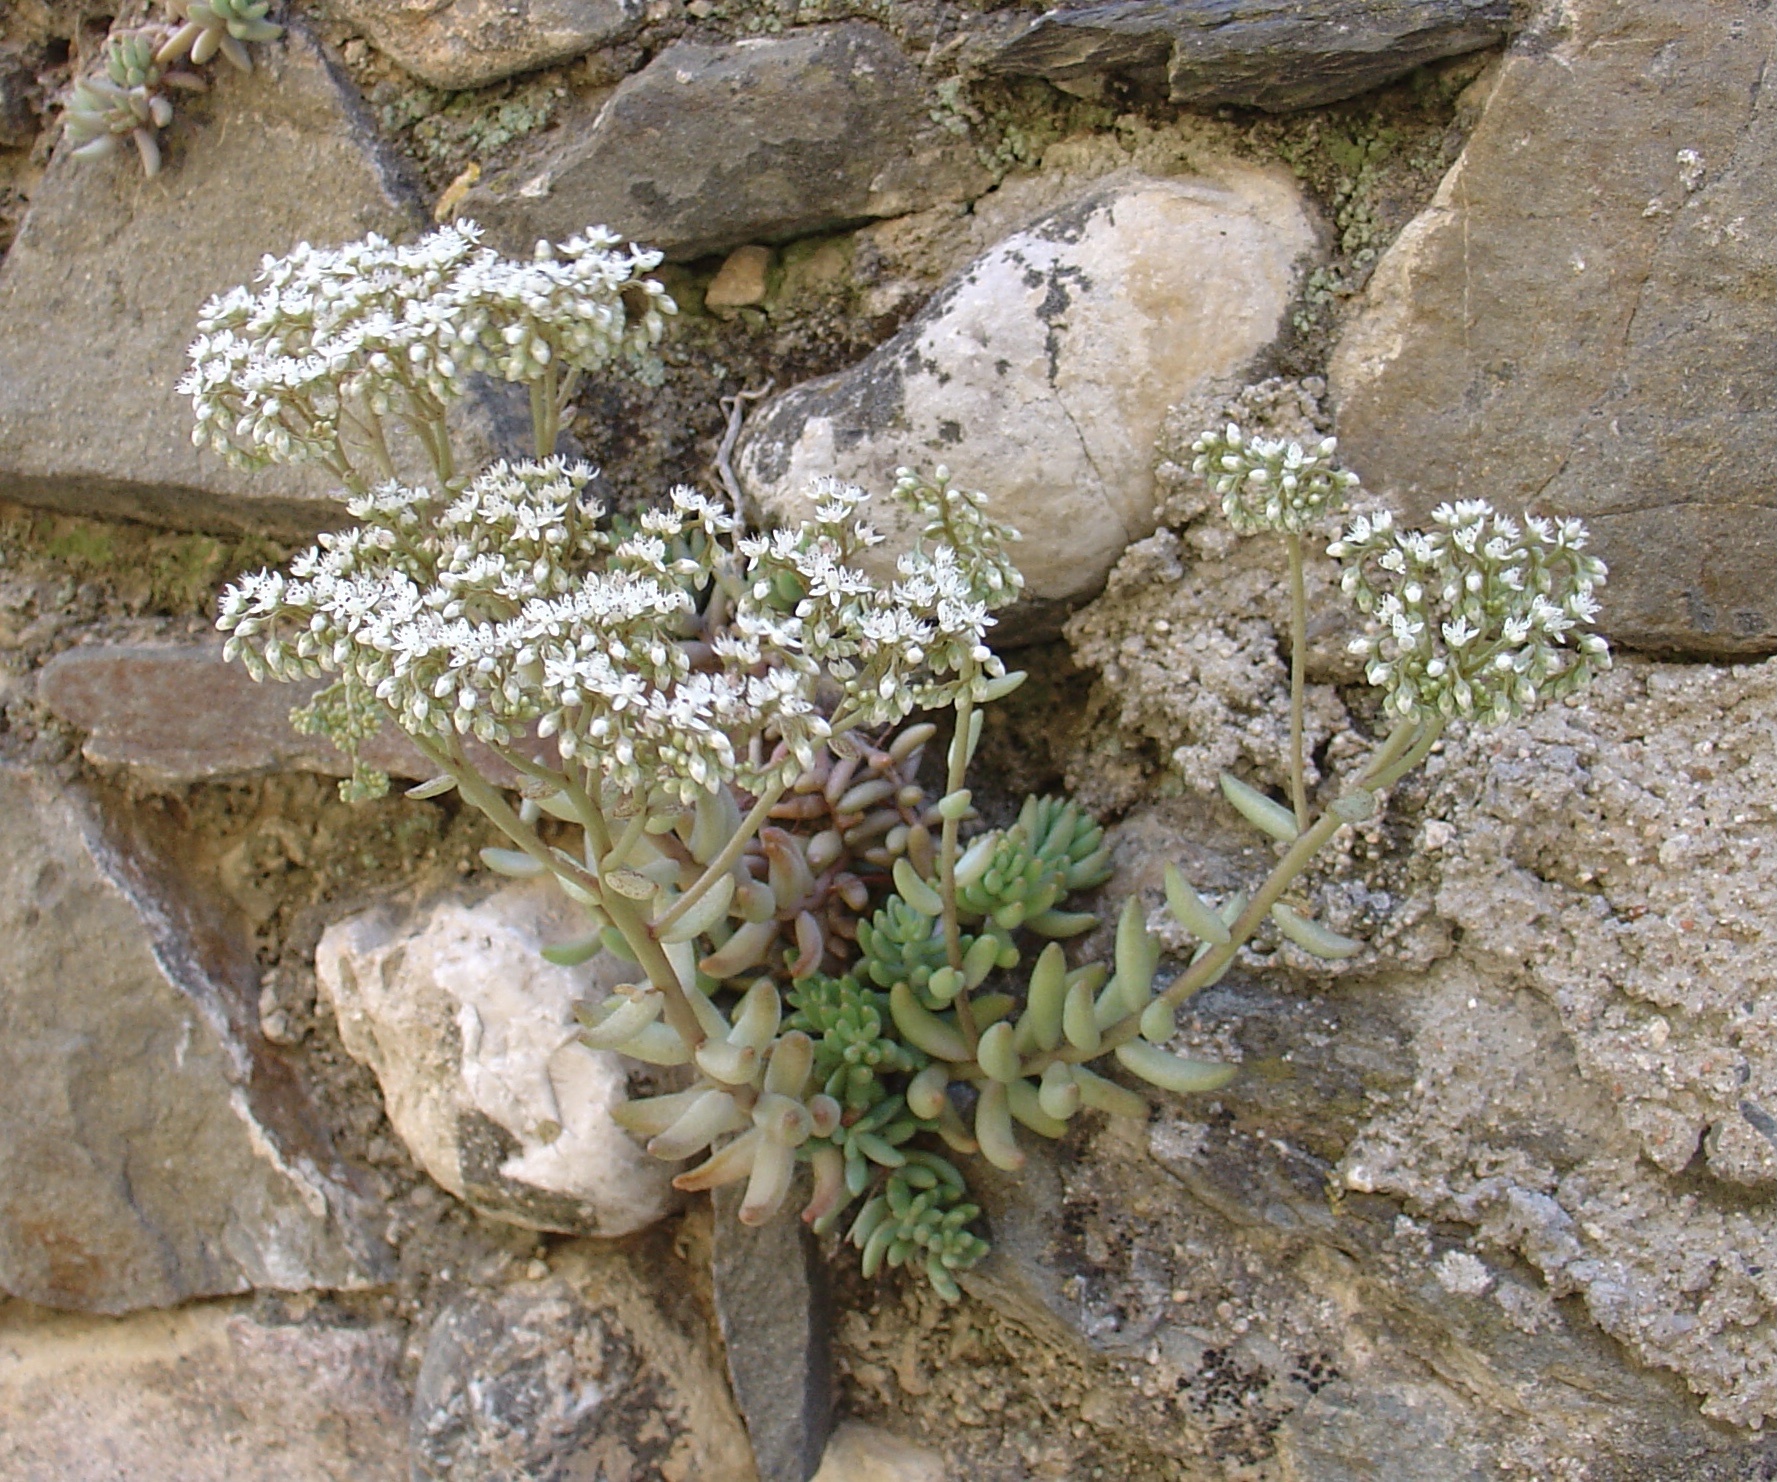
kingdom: Plantae
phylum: Tracheophyta
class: Magnoliopsida
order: Saxifragales
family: Crassulaceae
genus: Sedum
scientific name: Sedum album
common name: White stonecrop
